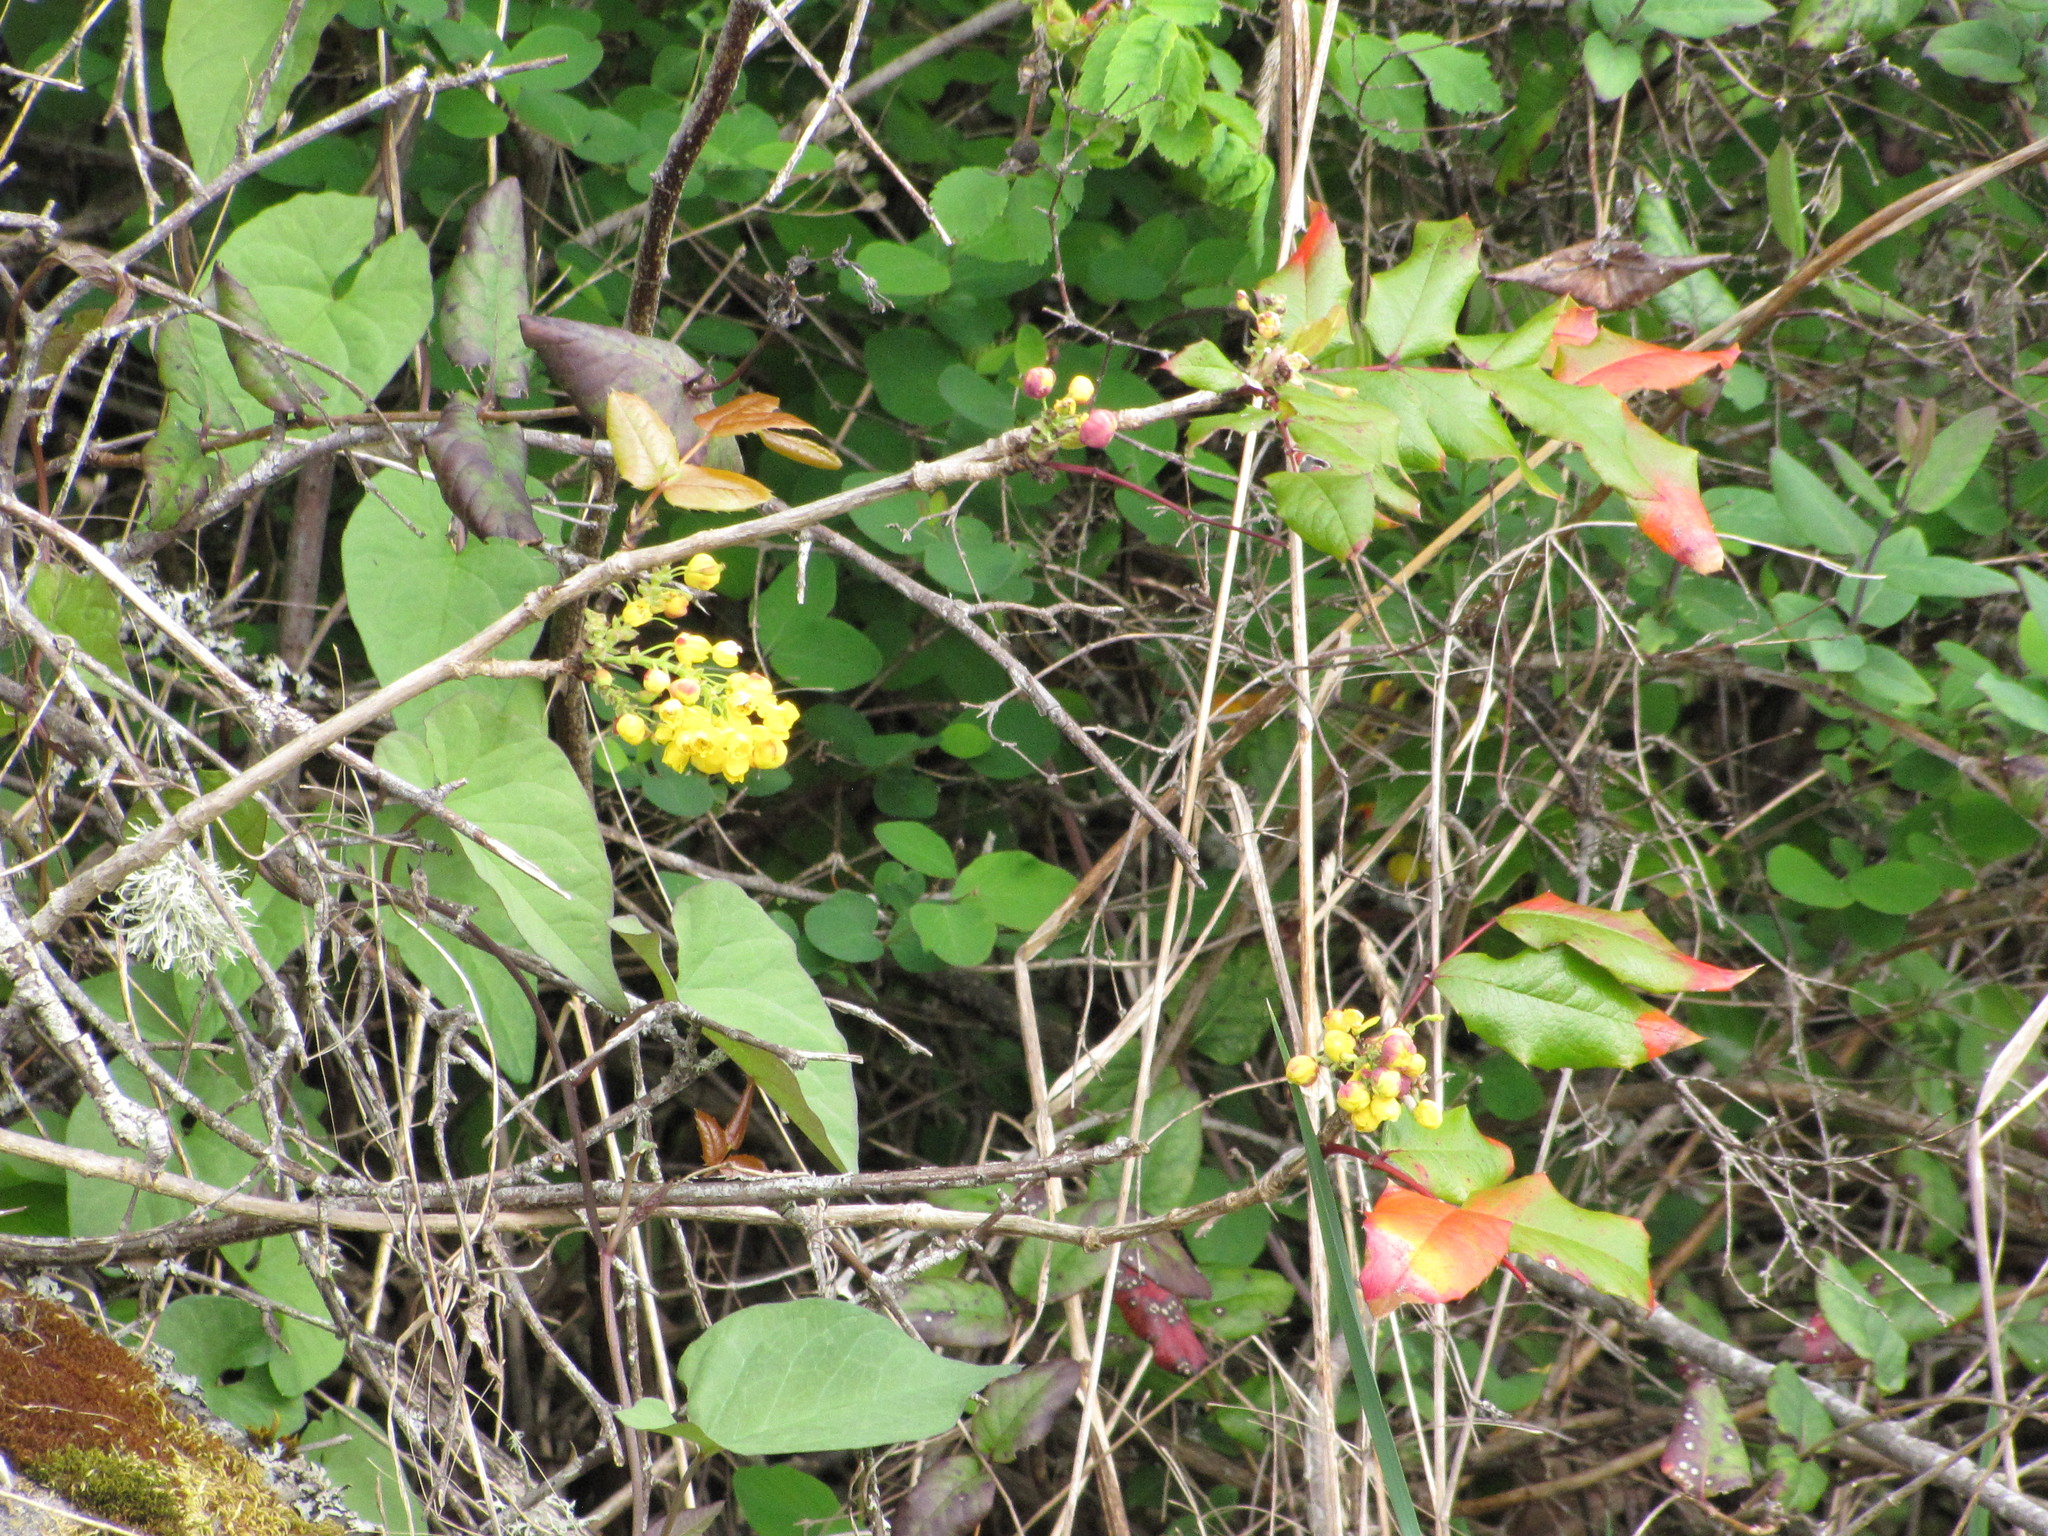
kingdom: Plantae
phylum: Tracheophyta
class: Magnoliopsida
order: Ranunculales
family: Berberidaceae
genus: Mahonia
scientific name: Mahonia aquifolium
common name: Oregon-grape
